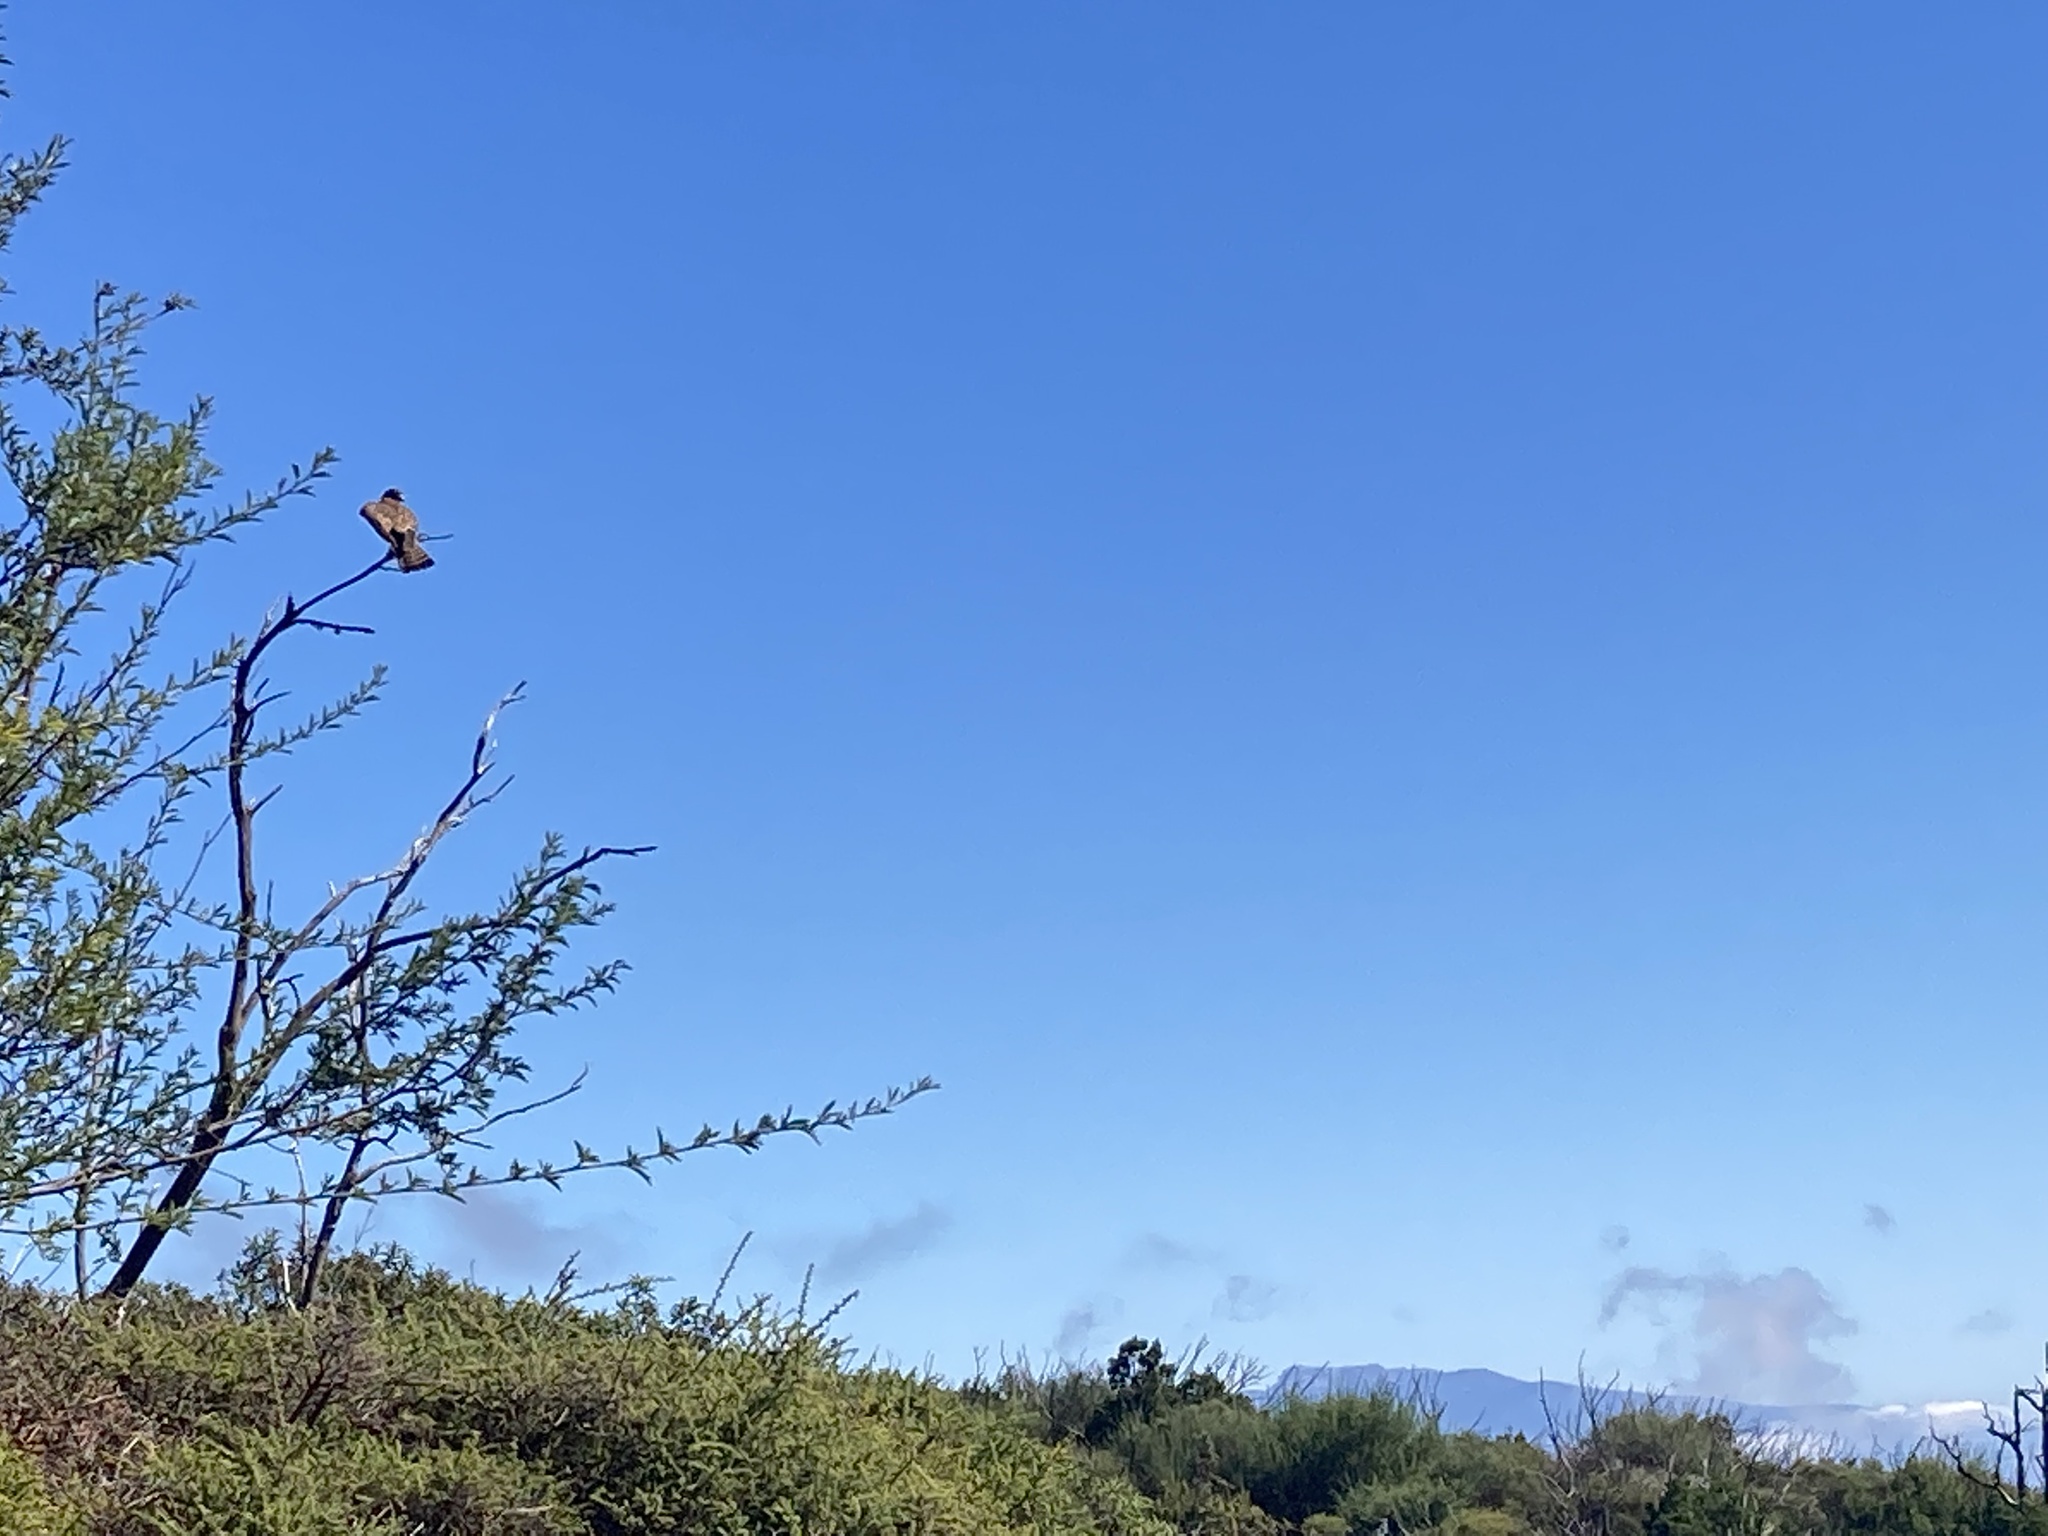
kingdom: Animalia
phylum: Chordata
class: Aves
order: Falconiformes
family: Falconidae
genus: Falco
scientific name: Falco tinnunculus
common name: Common kestrel
